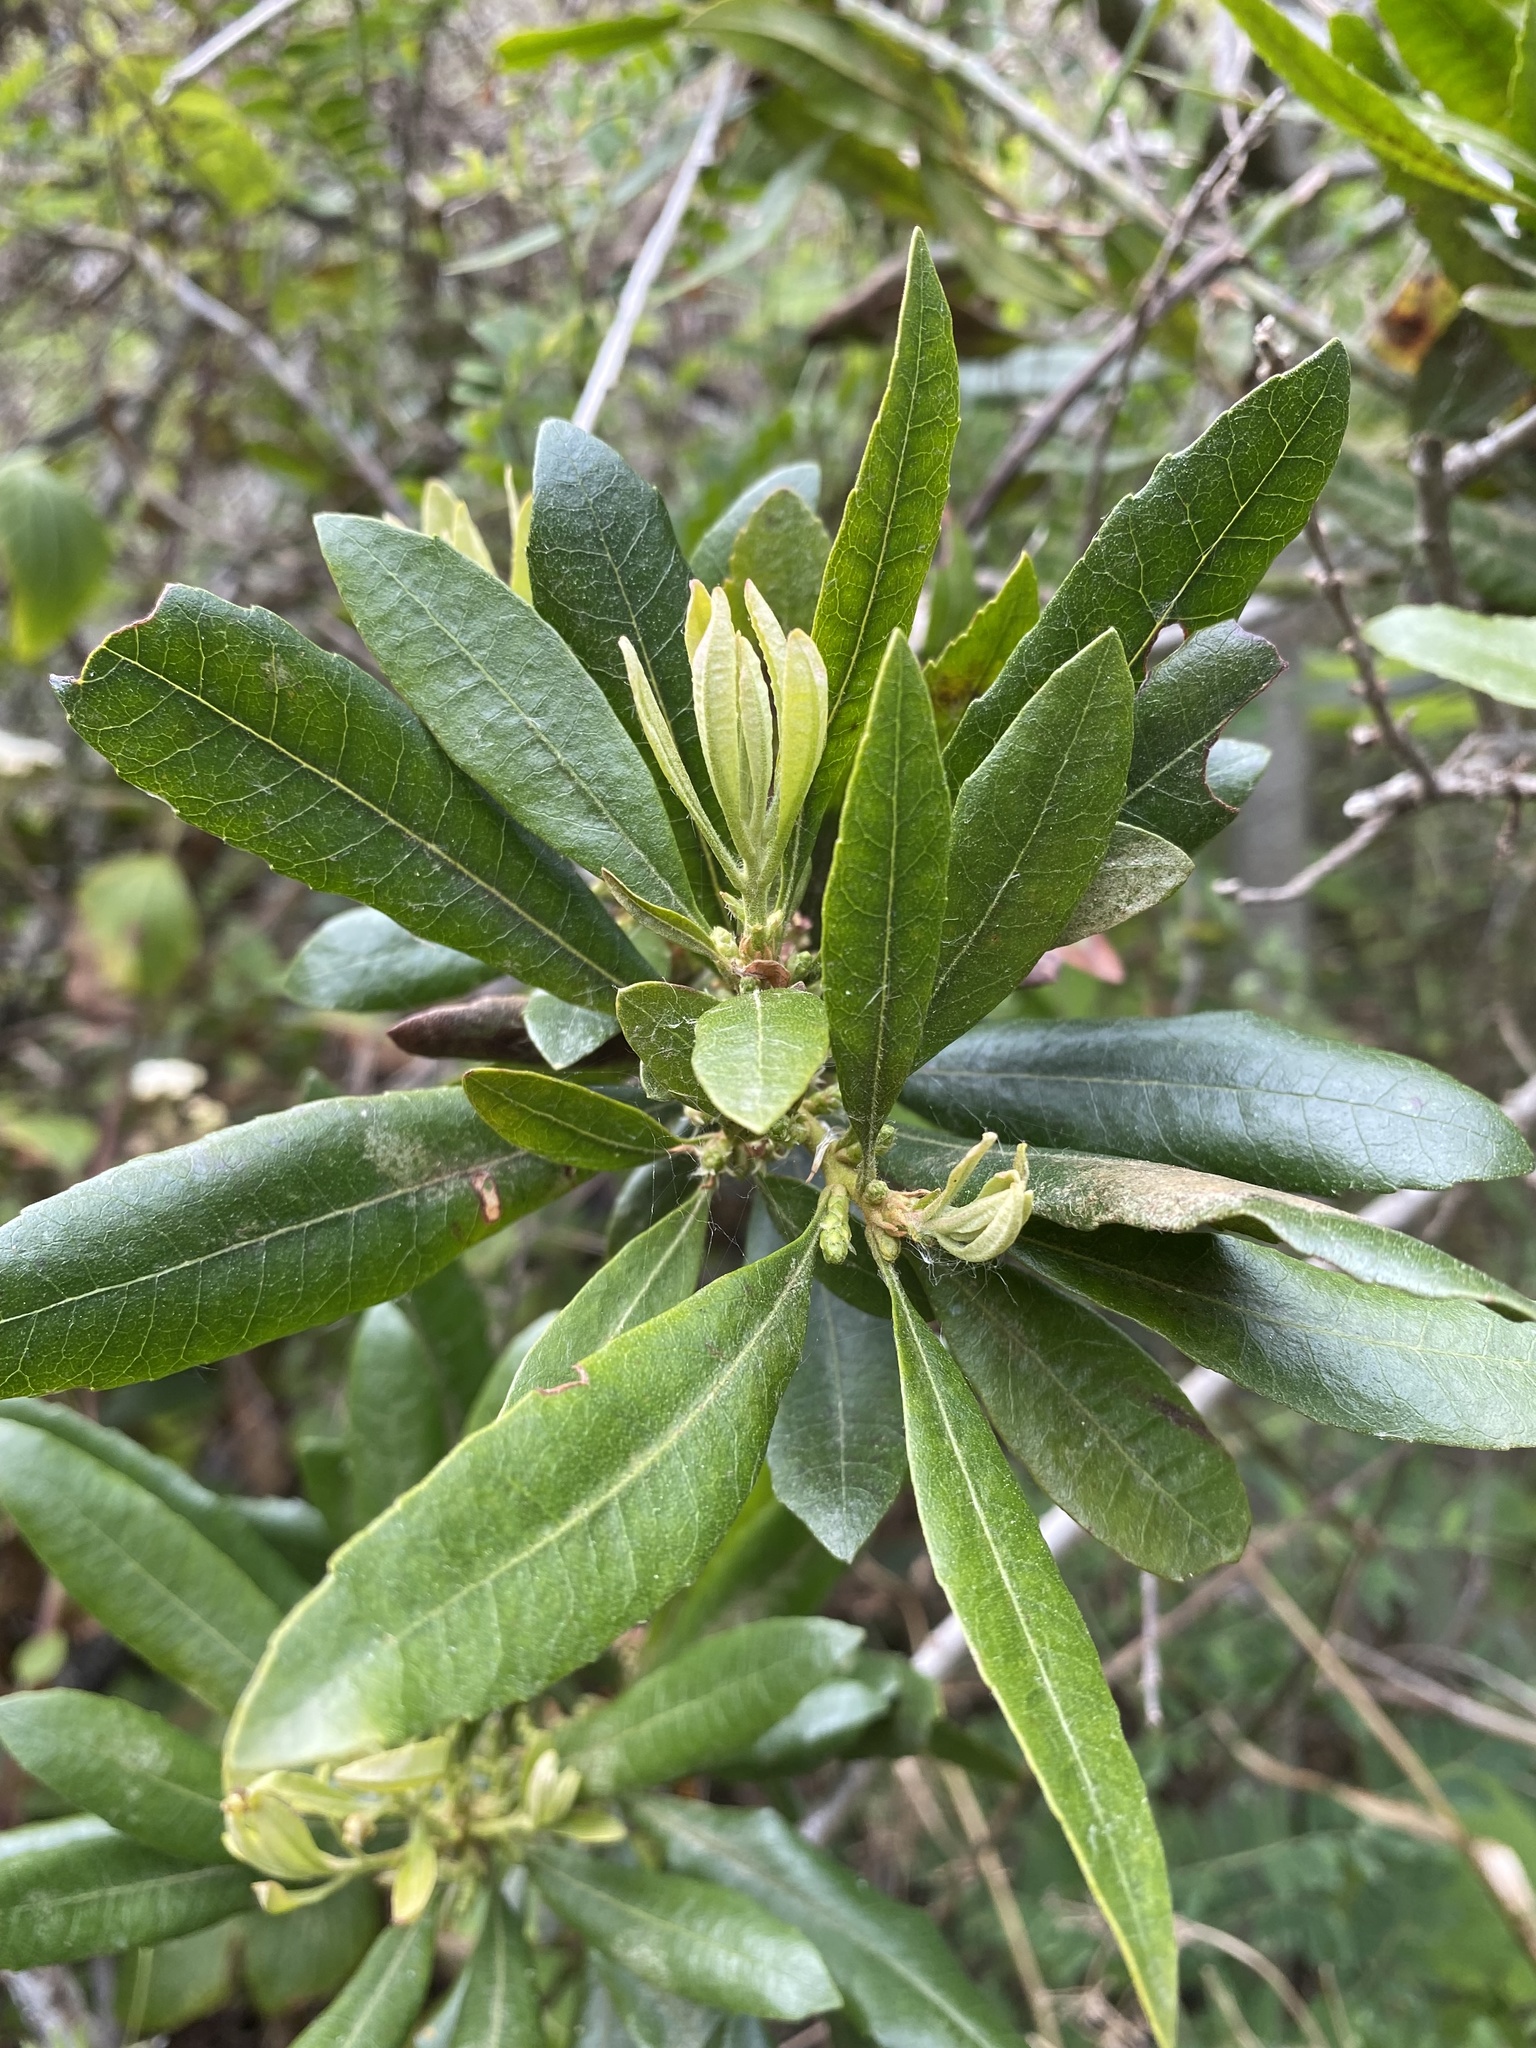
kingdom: Plantae
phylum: Tracheophyta
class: Magnoliopsida
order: Fagales
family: Myricaceae
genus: Morella
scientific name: Morella californica
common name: California wax-myrtle
